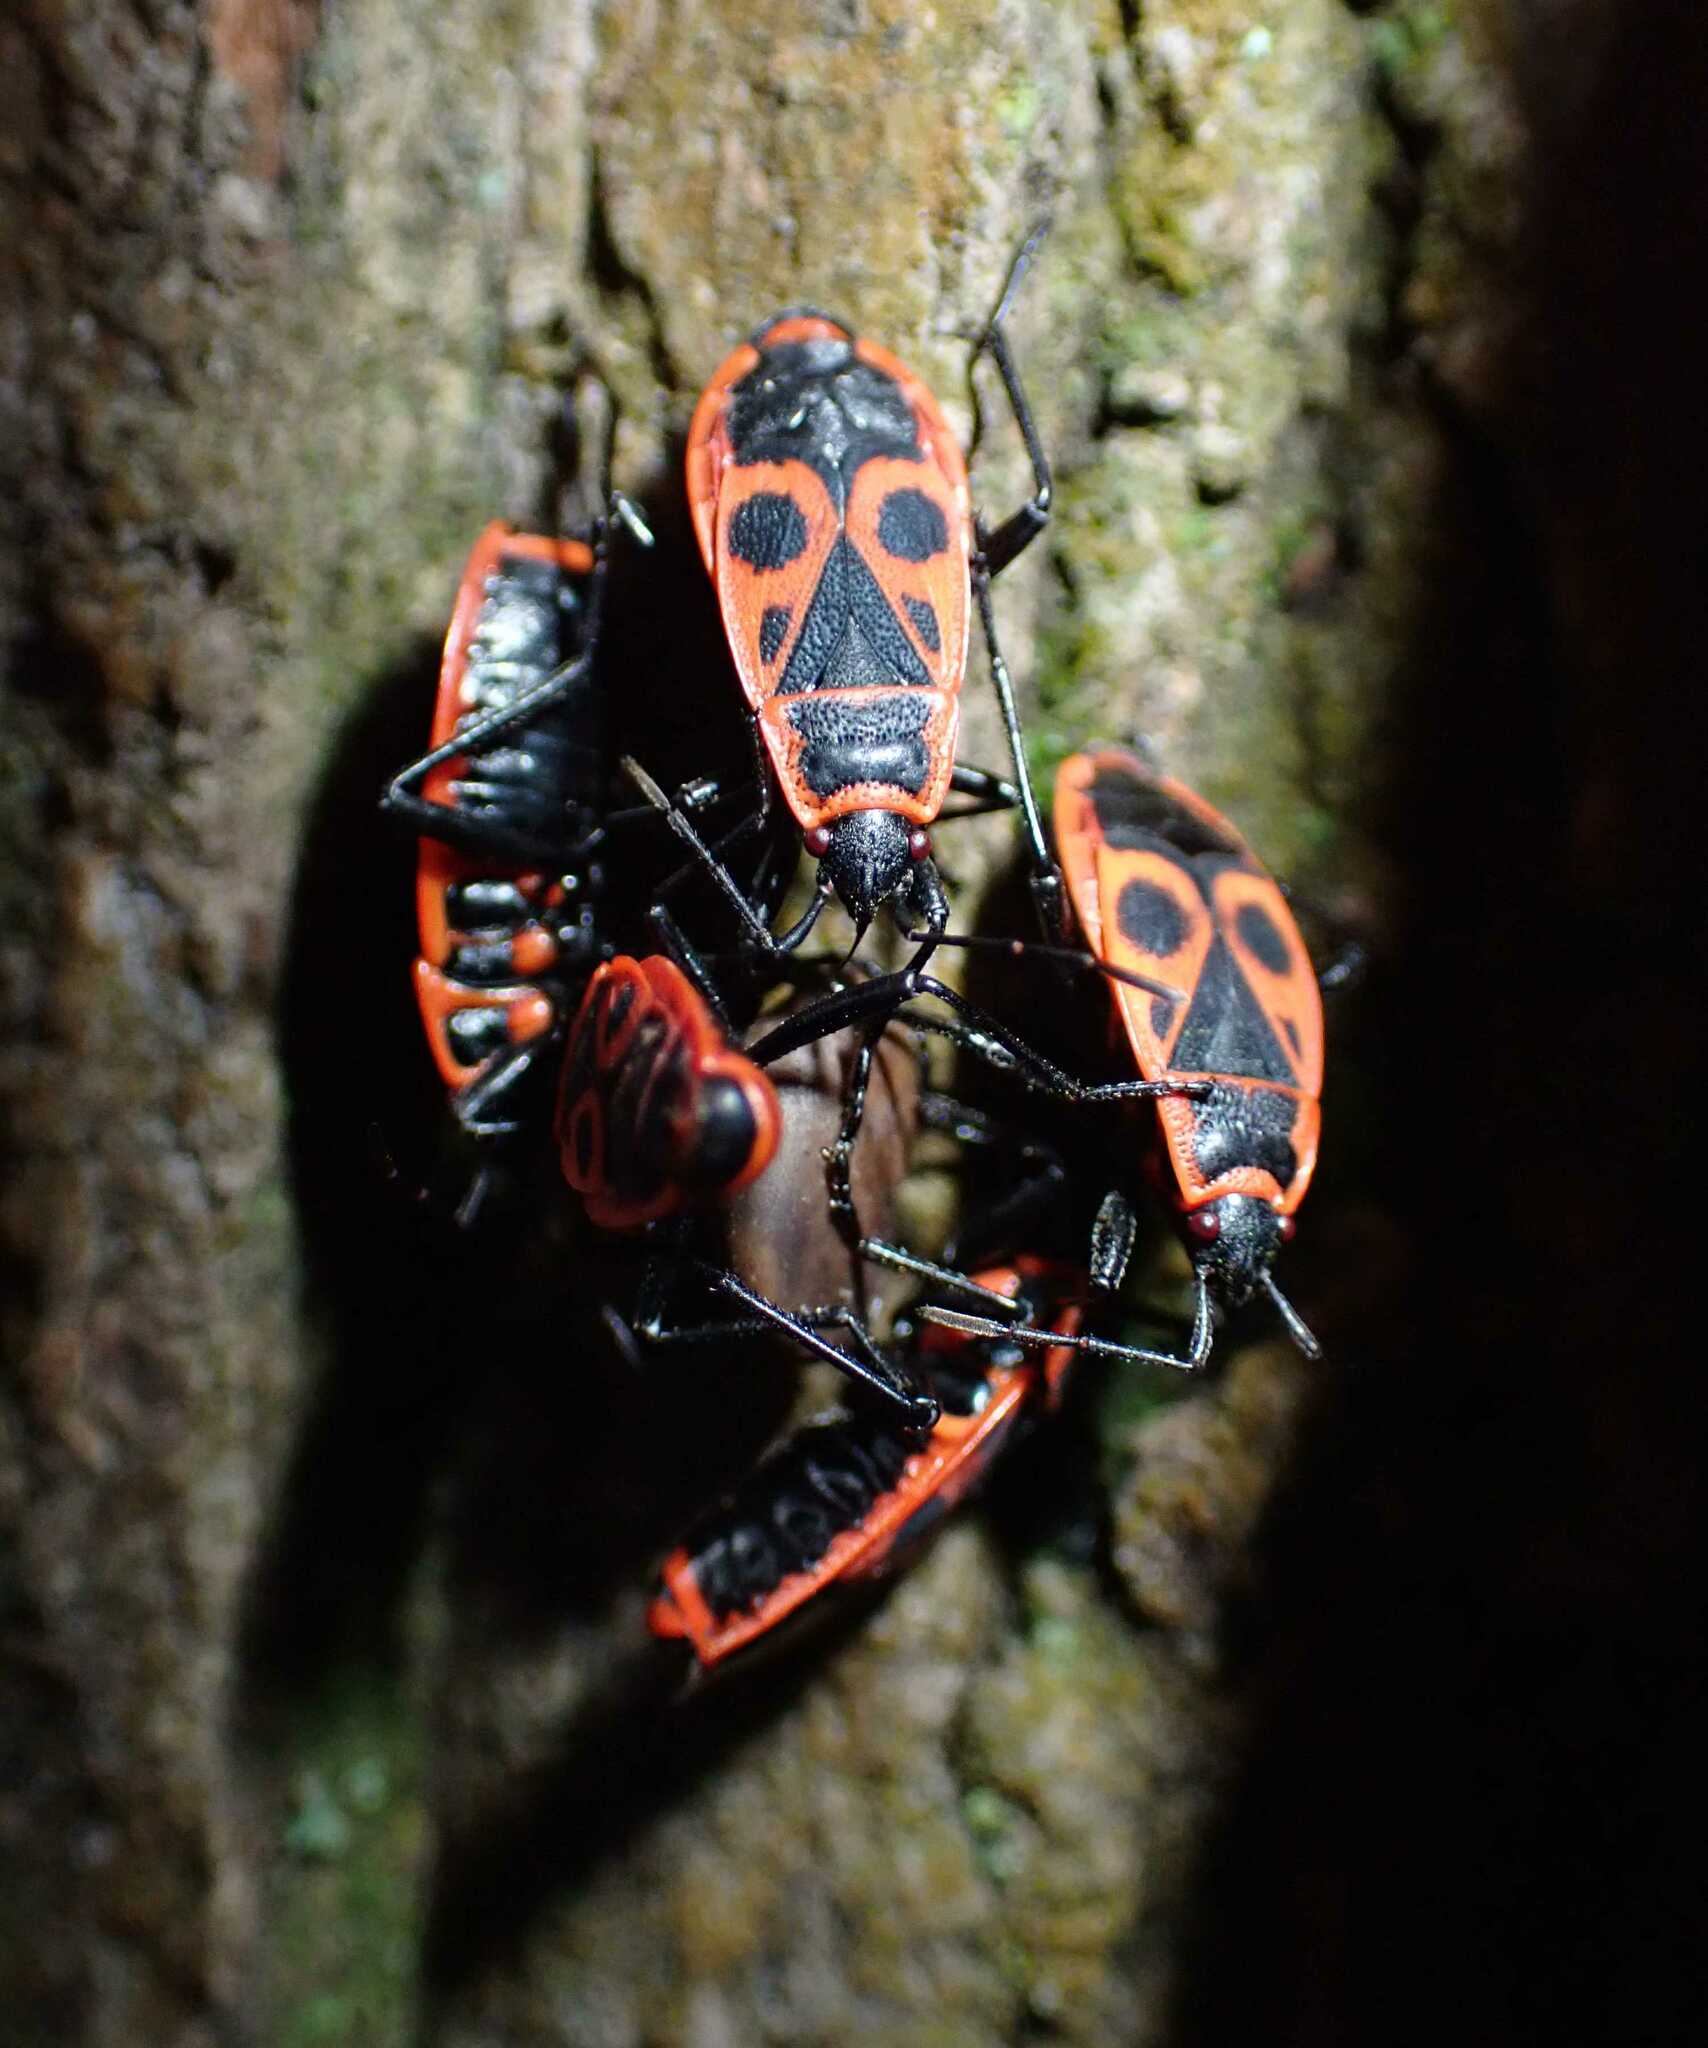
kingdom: Animalia
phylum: Arthropoda
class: Insecta
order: Hemiptera
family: Pyrrhocoridae
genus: Pyrrhocoris
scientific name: Pyrrhocoris apterus
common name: Firebug
